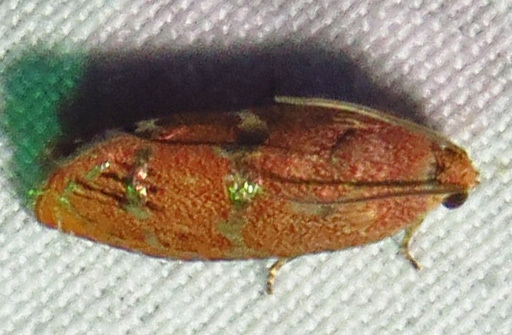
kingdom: Animalia
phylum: Arthropoda
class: Insecta
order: Lepidoptera
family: Tortricidae
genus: Cydia
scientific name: Cydia latiferreana
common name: Filbertworm moth
